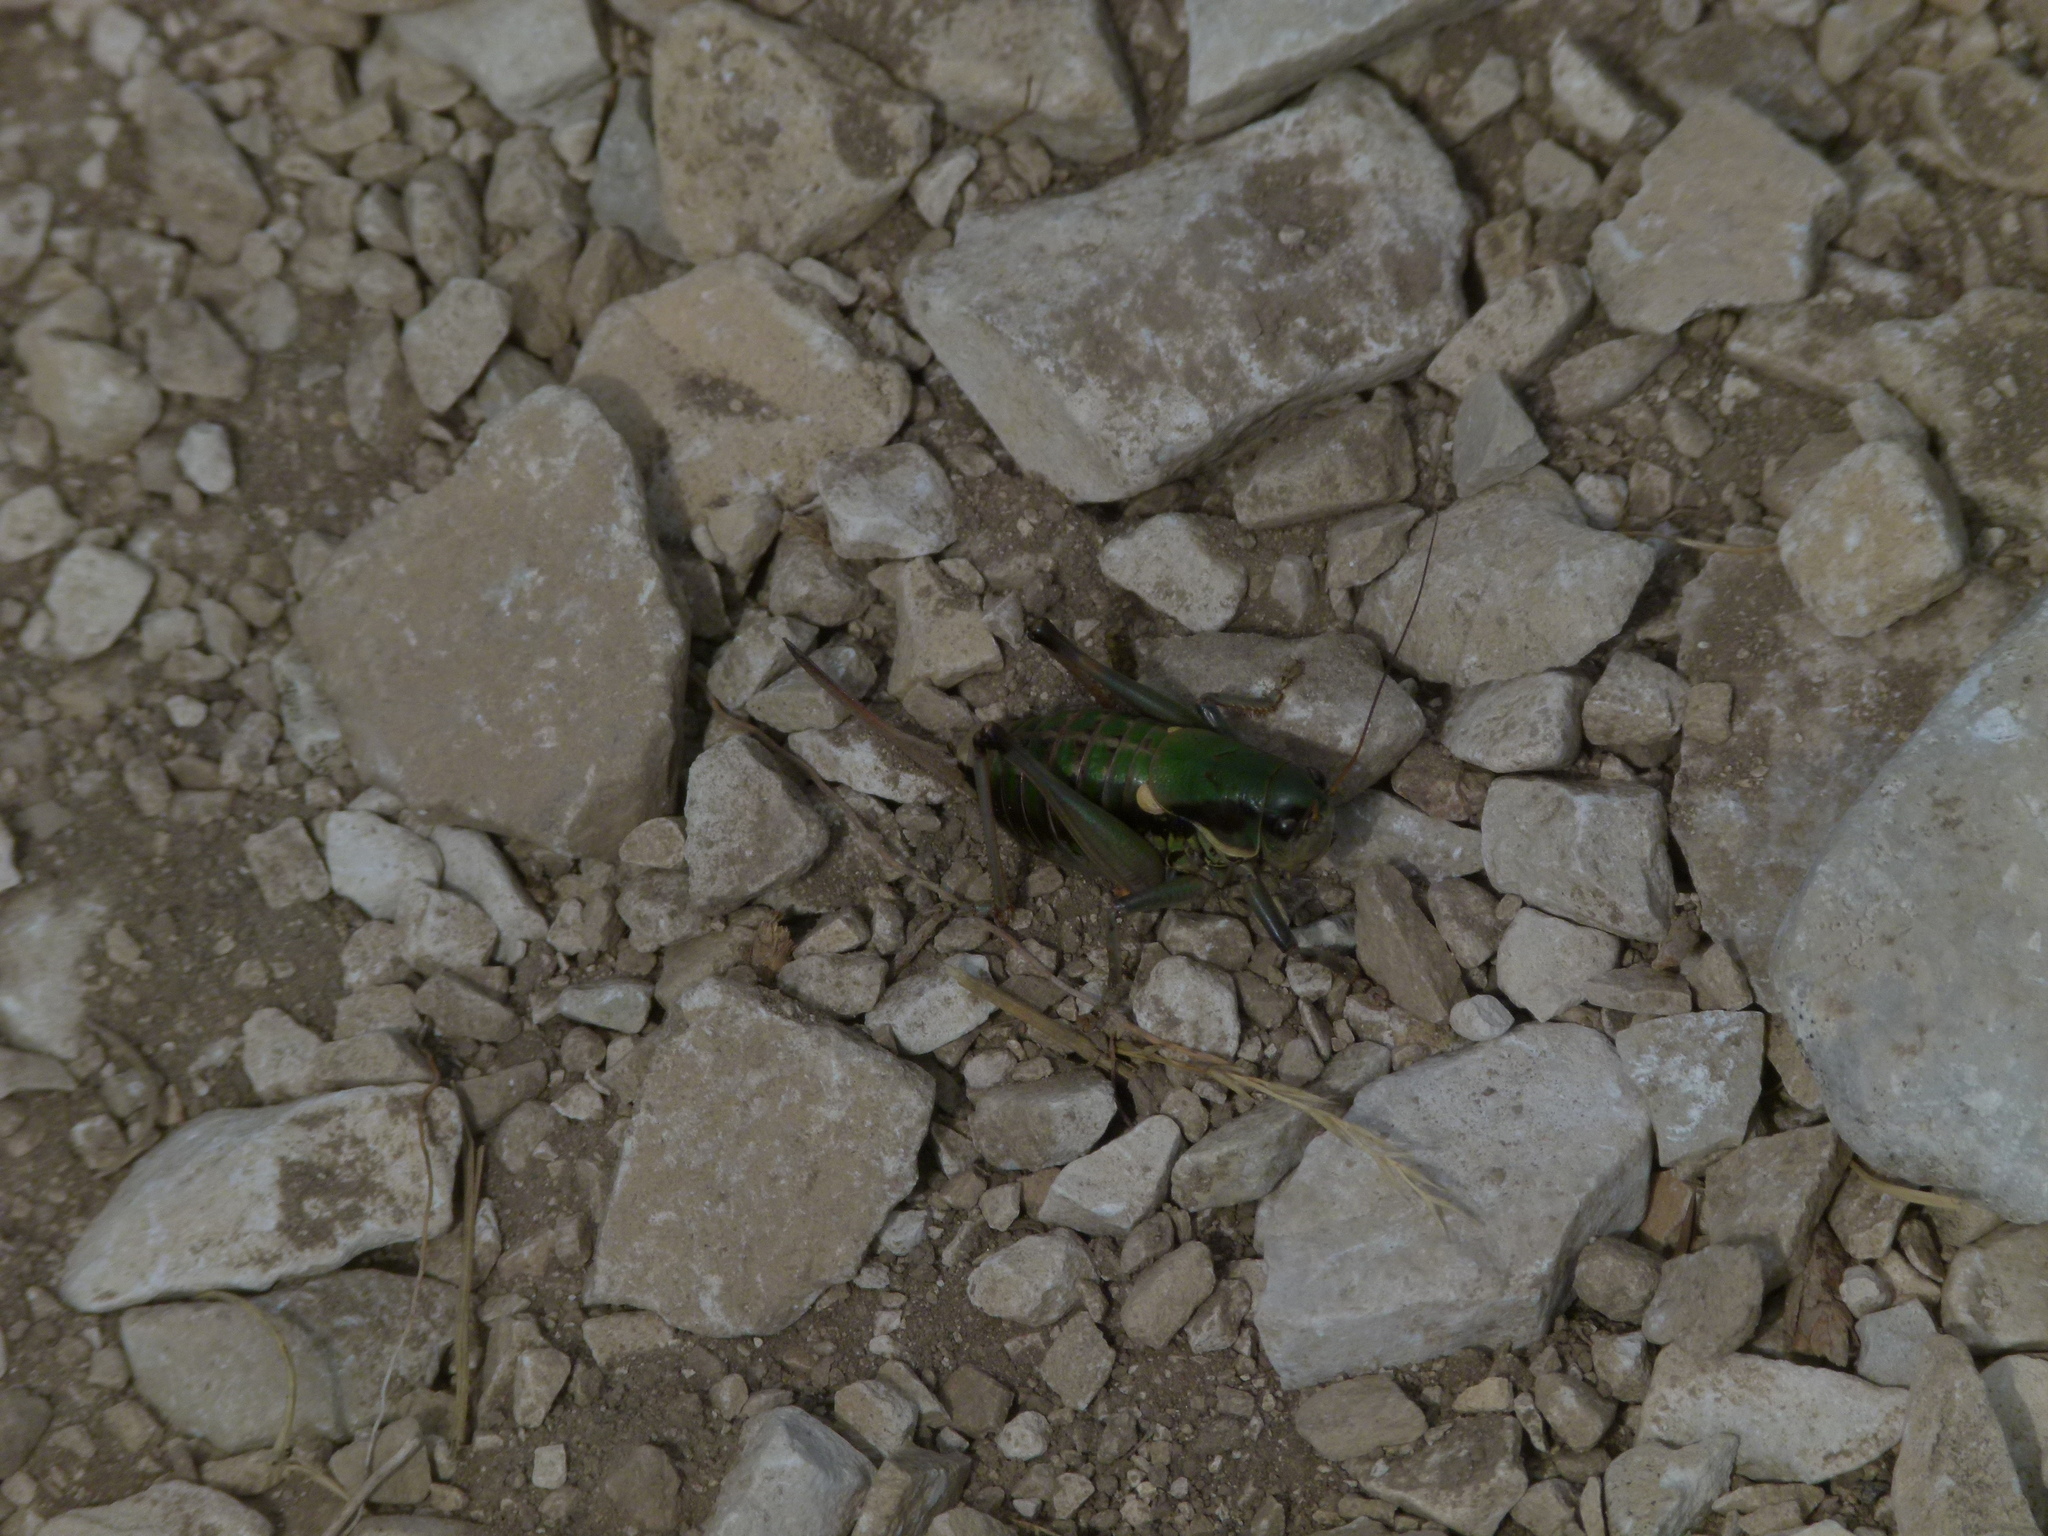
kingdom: Animalia
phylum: Arthropoda
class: Insecta
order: Orthoptera
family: Tettigoniidae
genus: Anonconotus
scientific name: Anonconotus ghilianii
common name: Ghiliani's alpine bush-cricket
